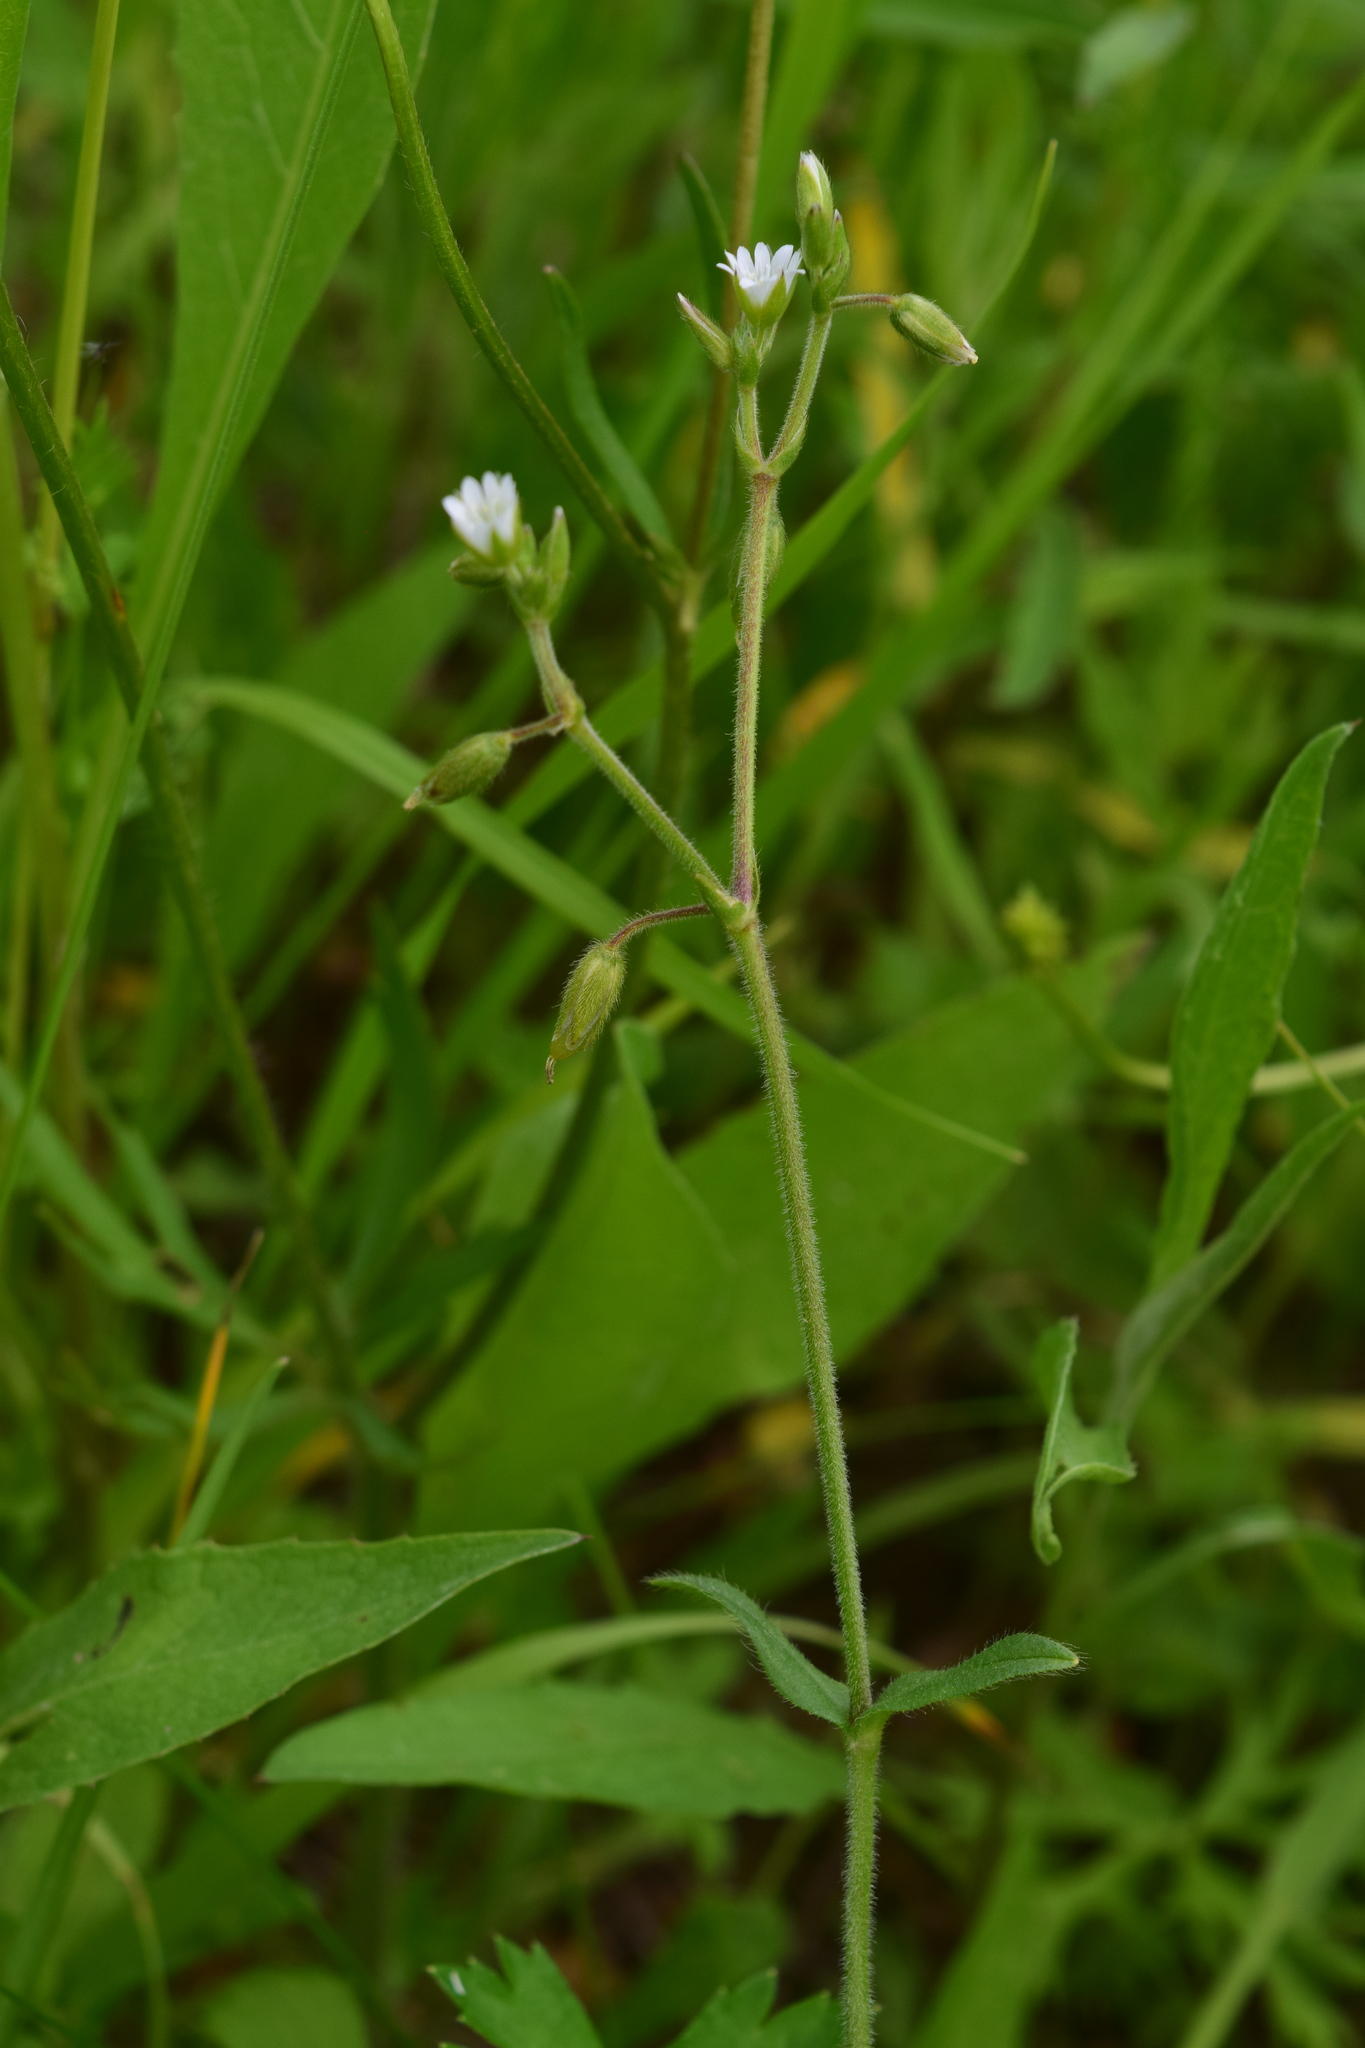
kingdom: Plantae
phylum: Tracheophyta
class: Magnoliopsida
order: Caryophyllales
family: Caryophyllaceae
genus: Cerastium
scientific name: Cerastium holosteoides
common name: Big chickweed
